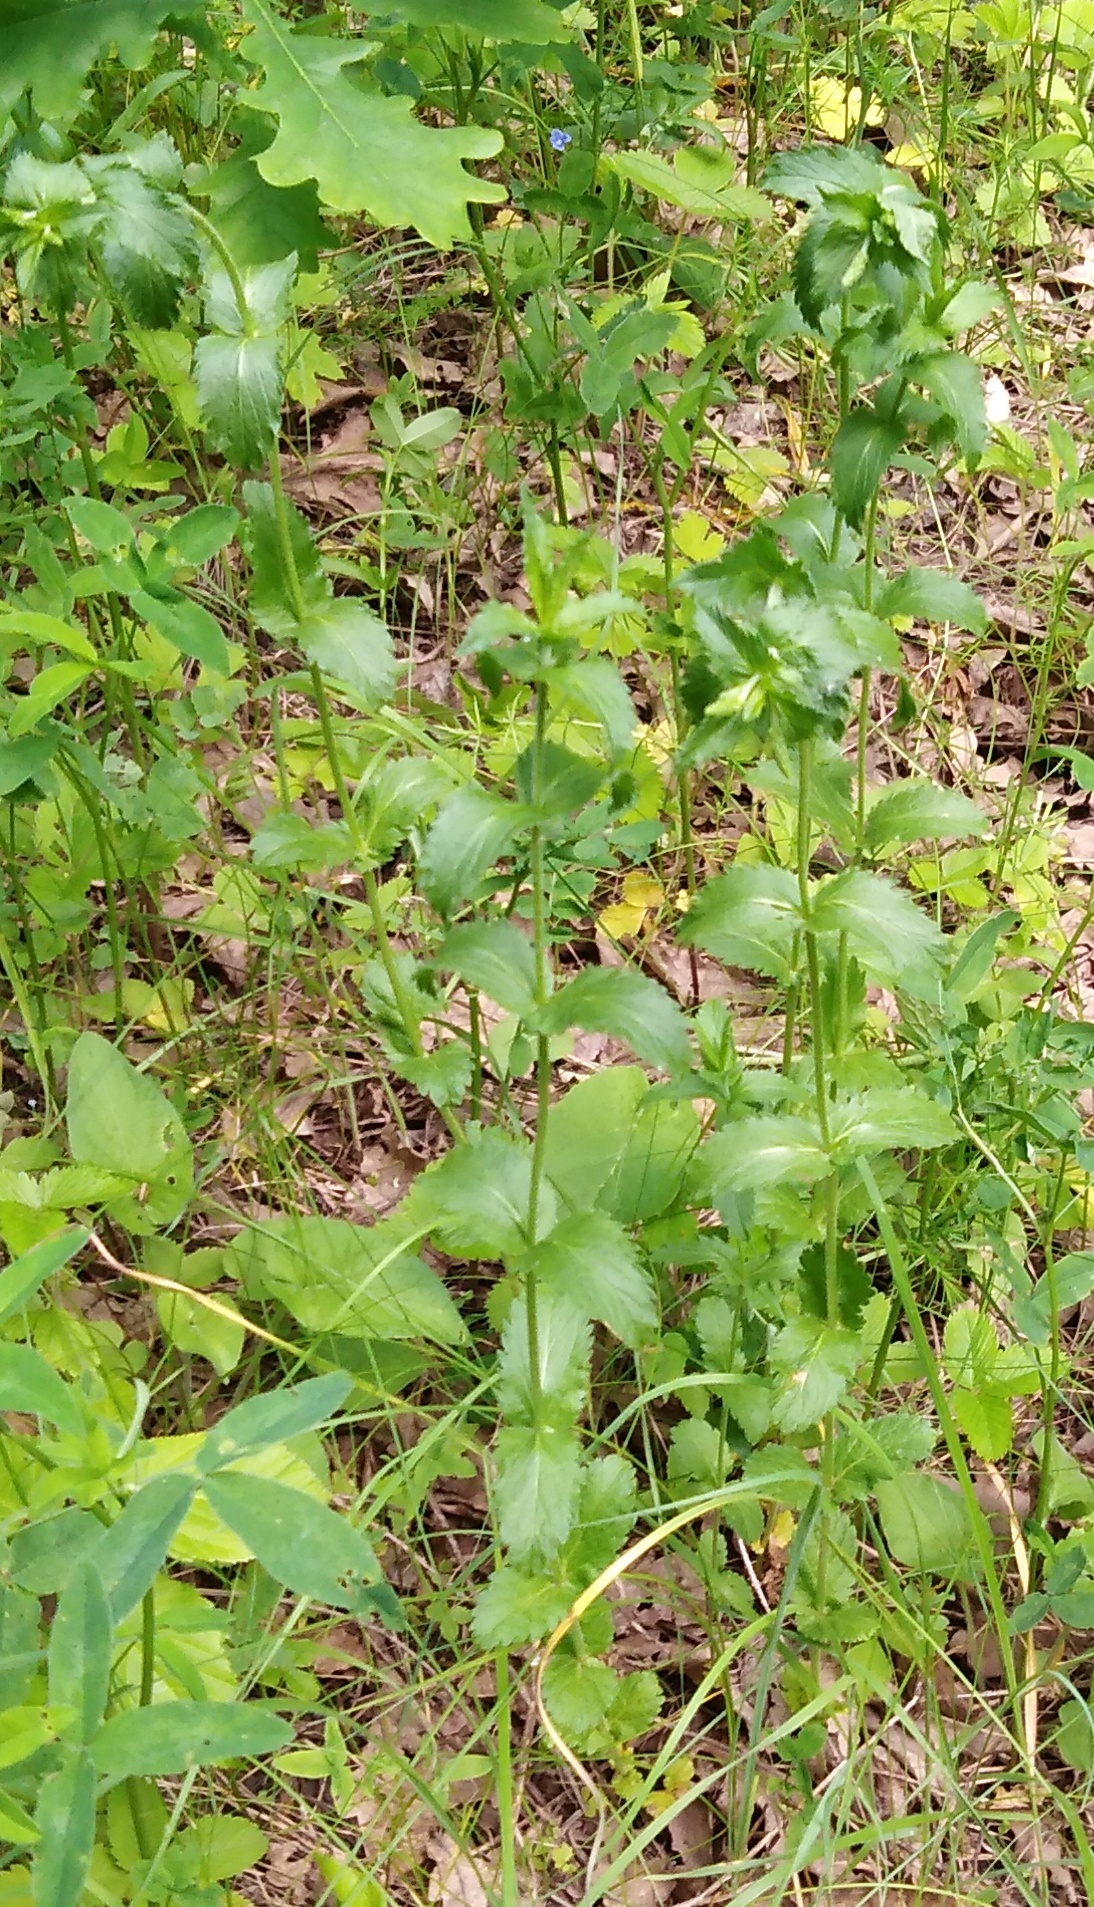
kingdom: Plantae
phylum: Tracheophyta
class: Magnoliopsida
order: Lamiales
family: Plantaginaceae
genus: Veronica
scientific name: Veronica teucrium
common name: Large speedwell
